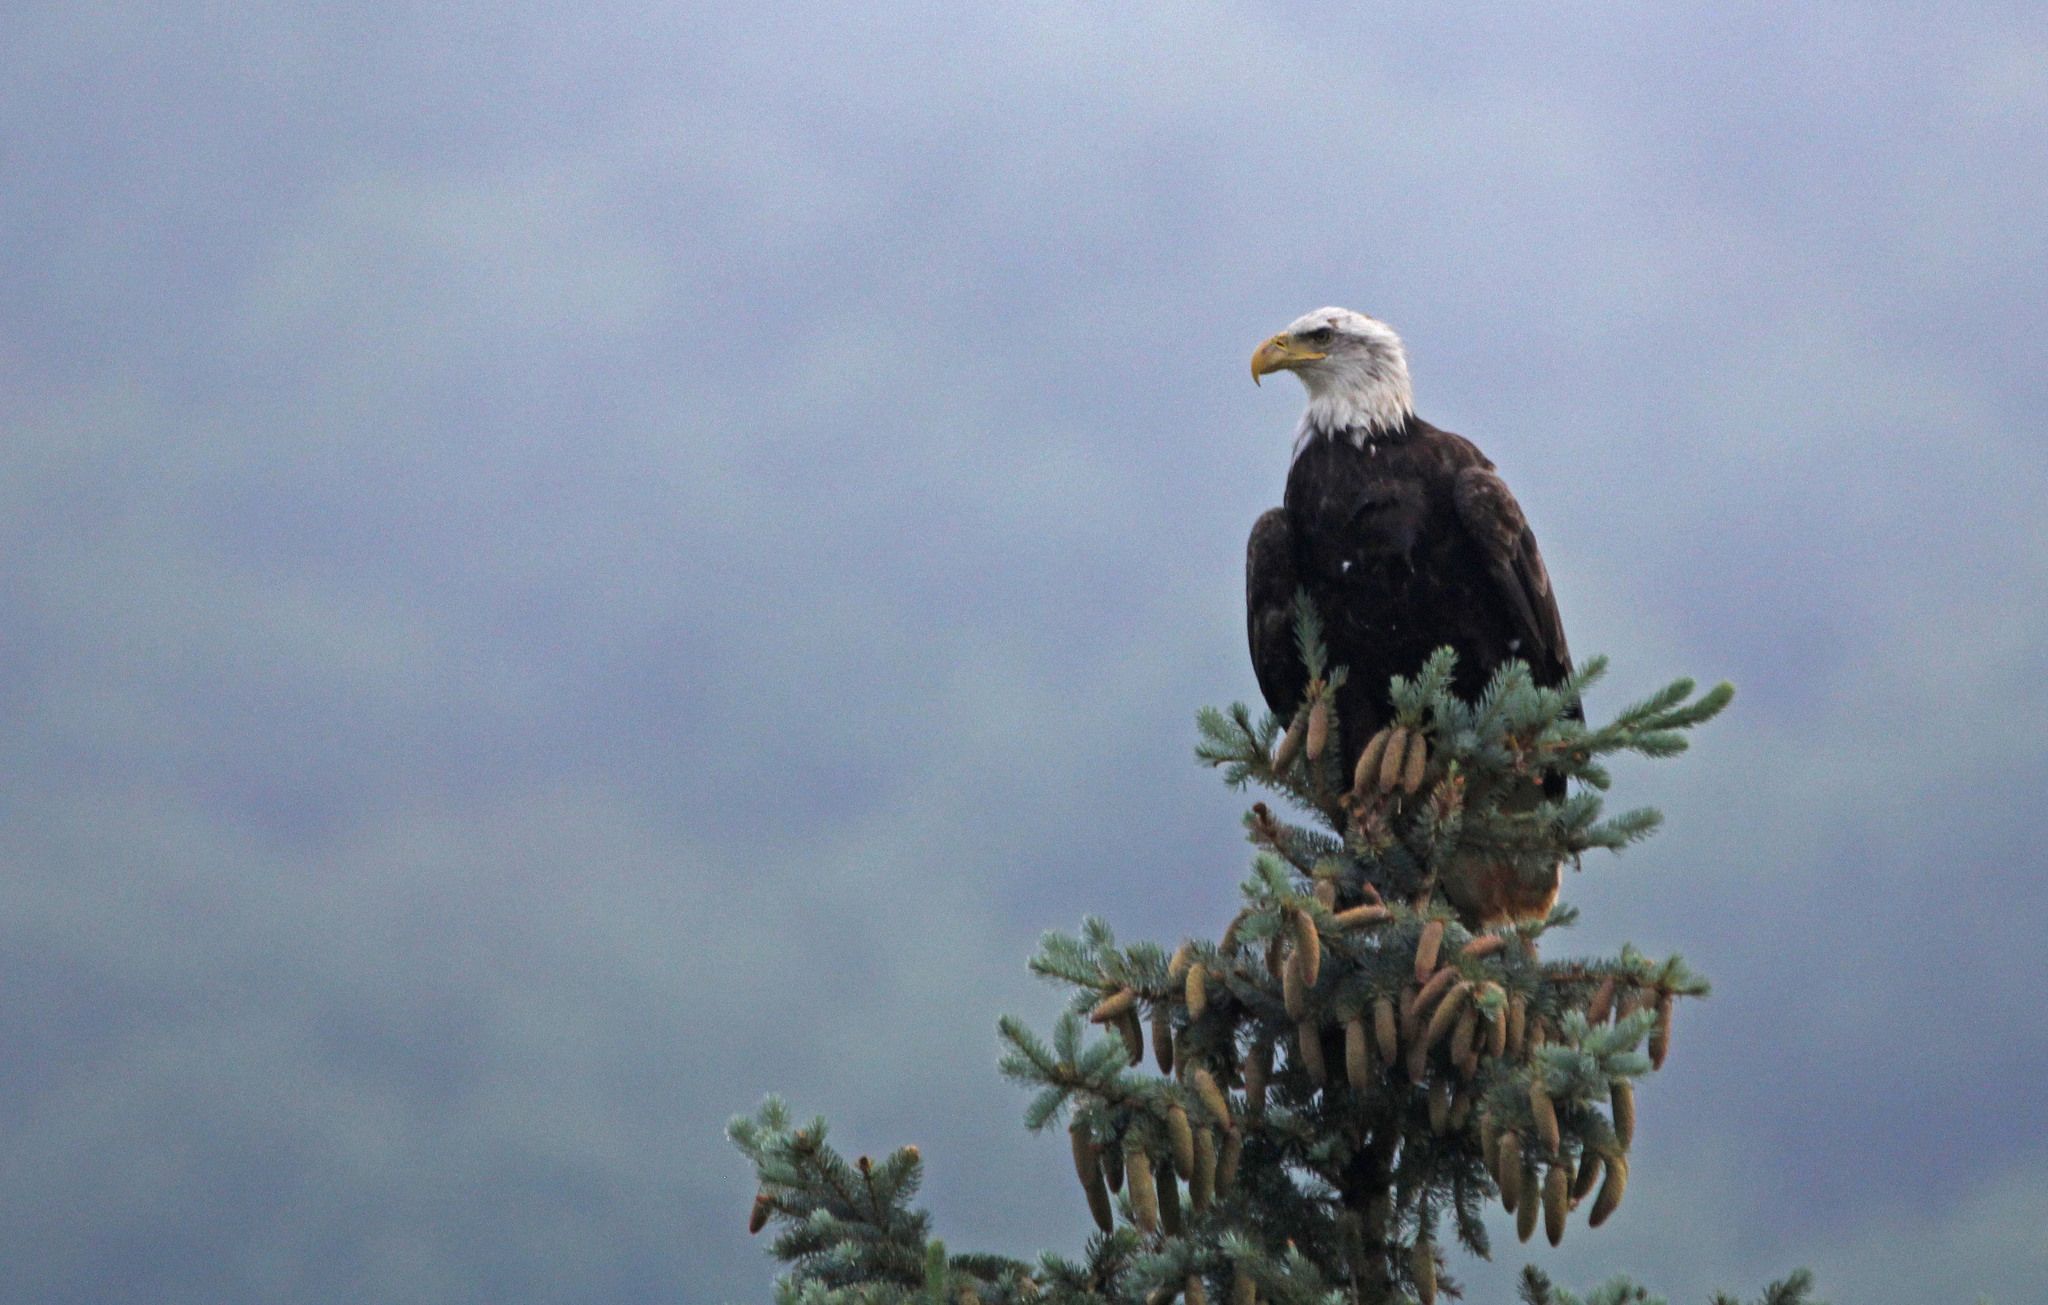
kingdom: Animalia
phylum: Chordata
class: Aves
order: Accipitriformes
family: Accipitridae
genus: Haliaeetus
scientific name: Haliaeetus leucocephalus
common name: Bald eagle
